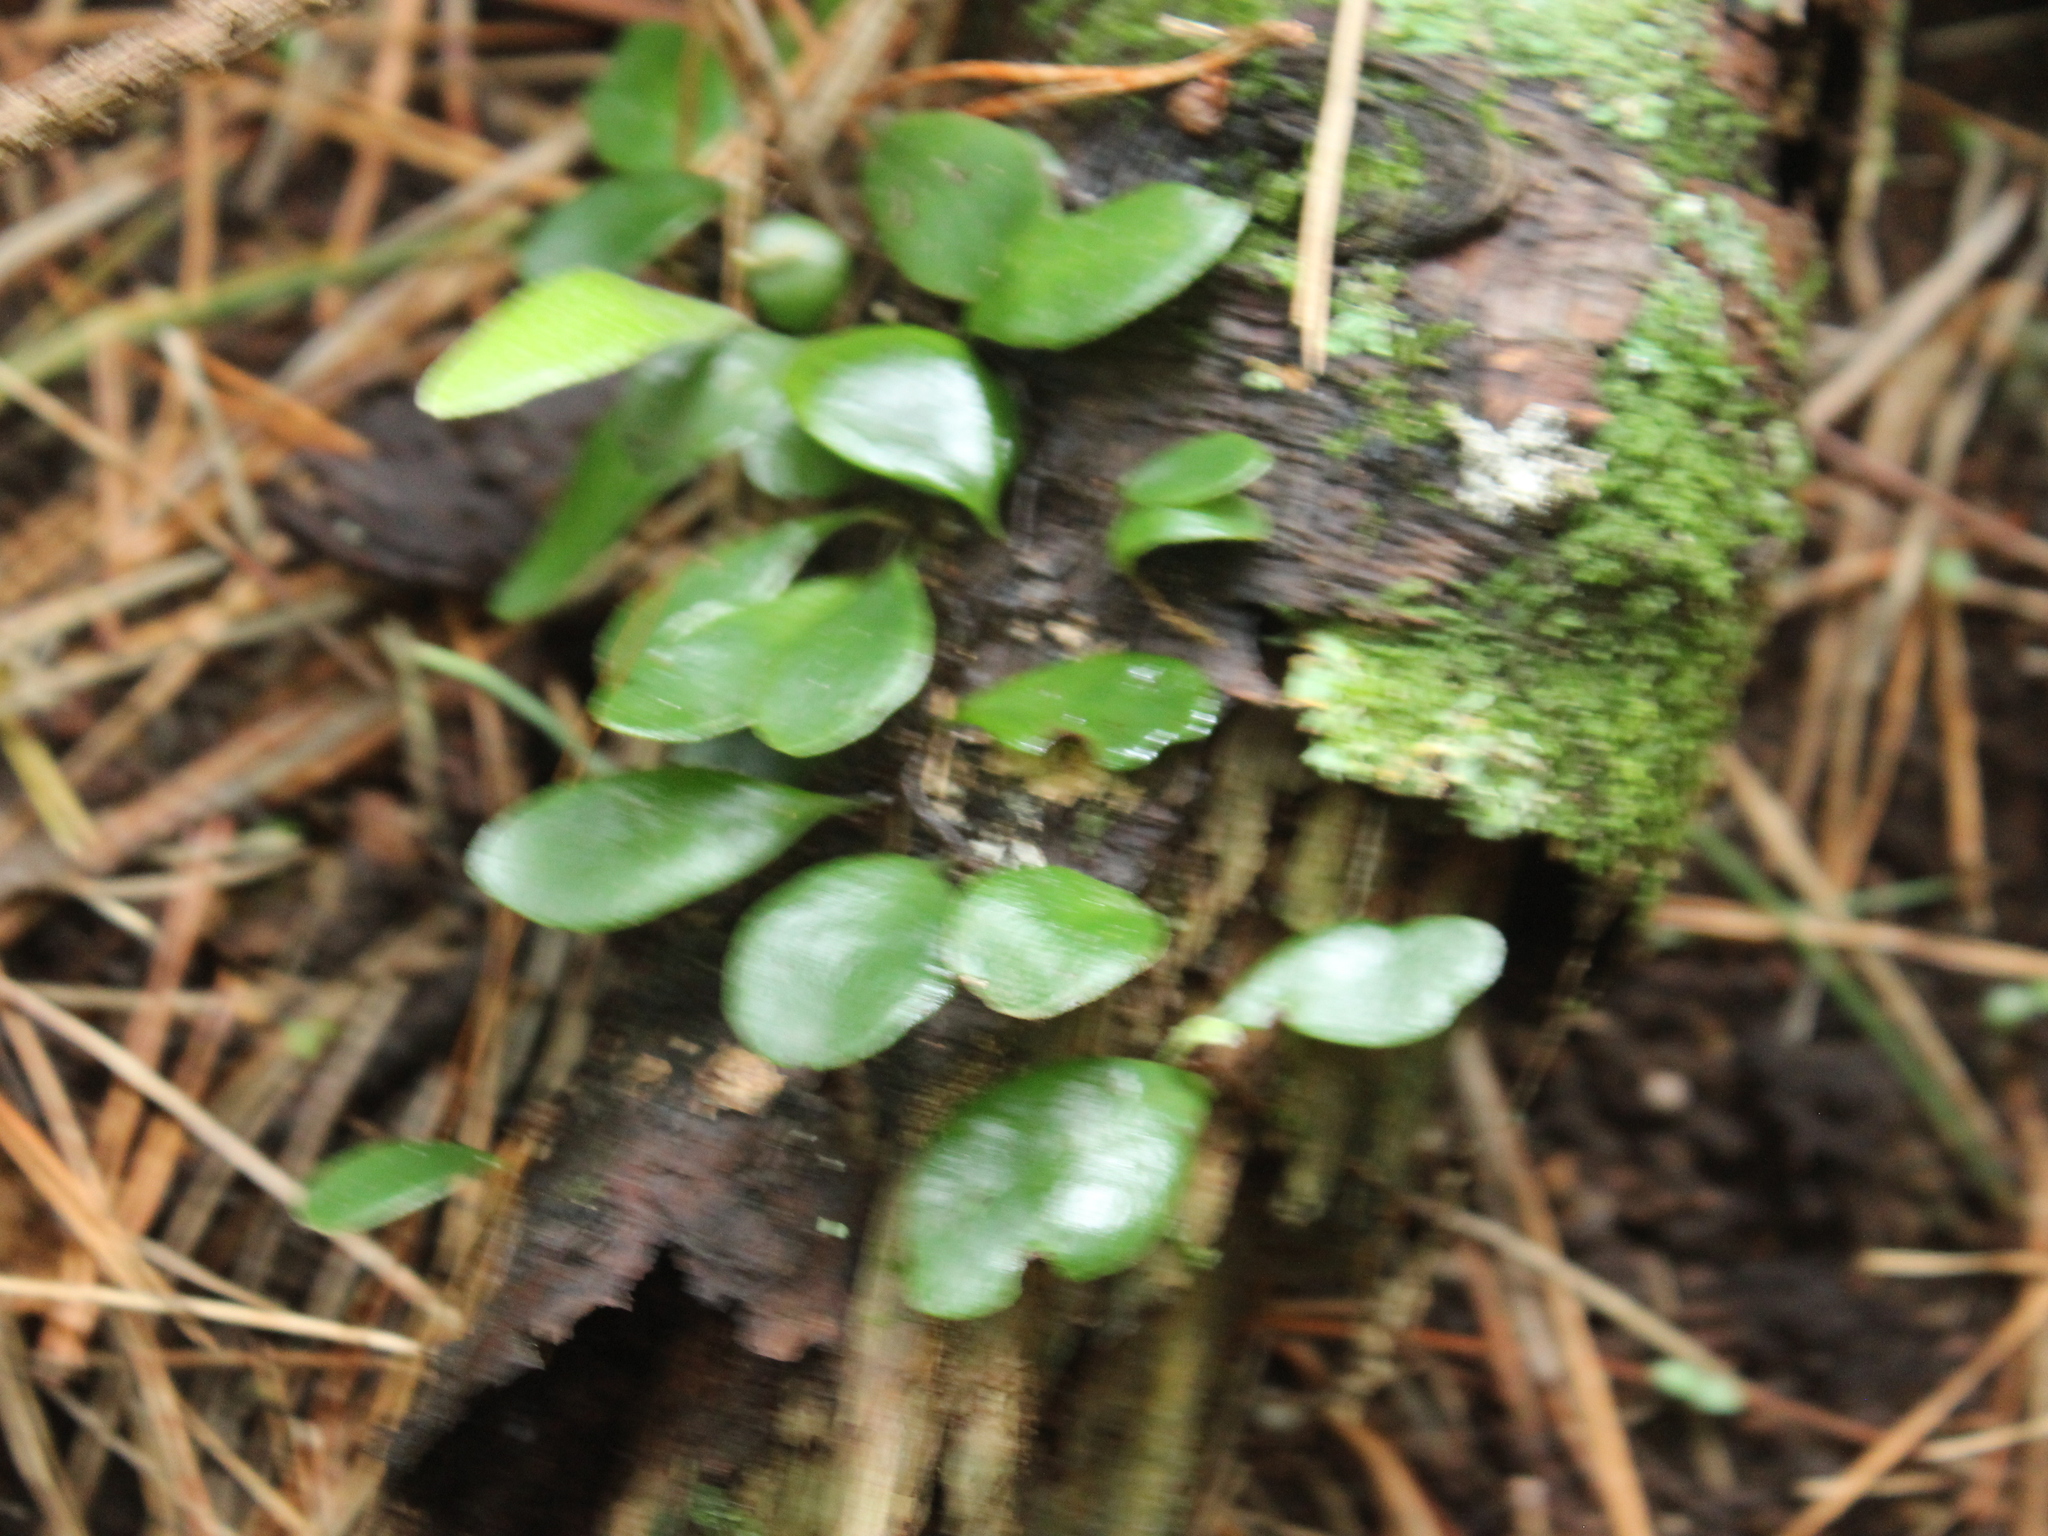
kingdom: Plantae
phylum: Tracheophyta
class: Polypodiopsida
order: Polypodiales
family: Polypodiaceae
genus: Pyrrosia
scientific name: Pyrrosia eleagnifolia
